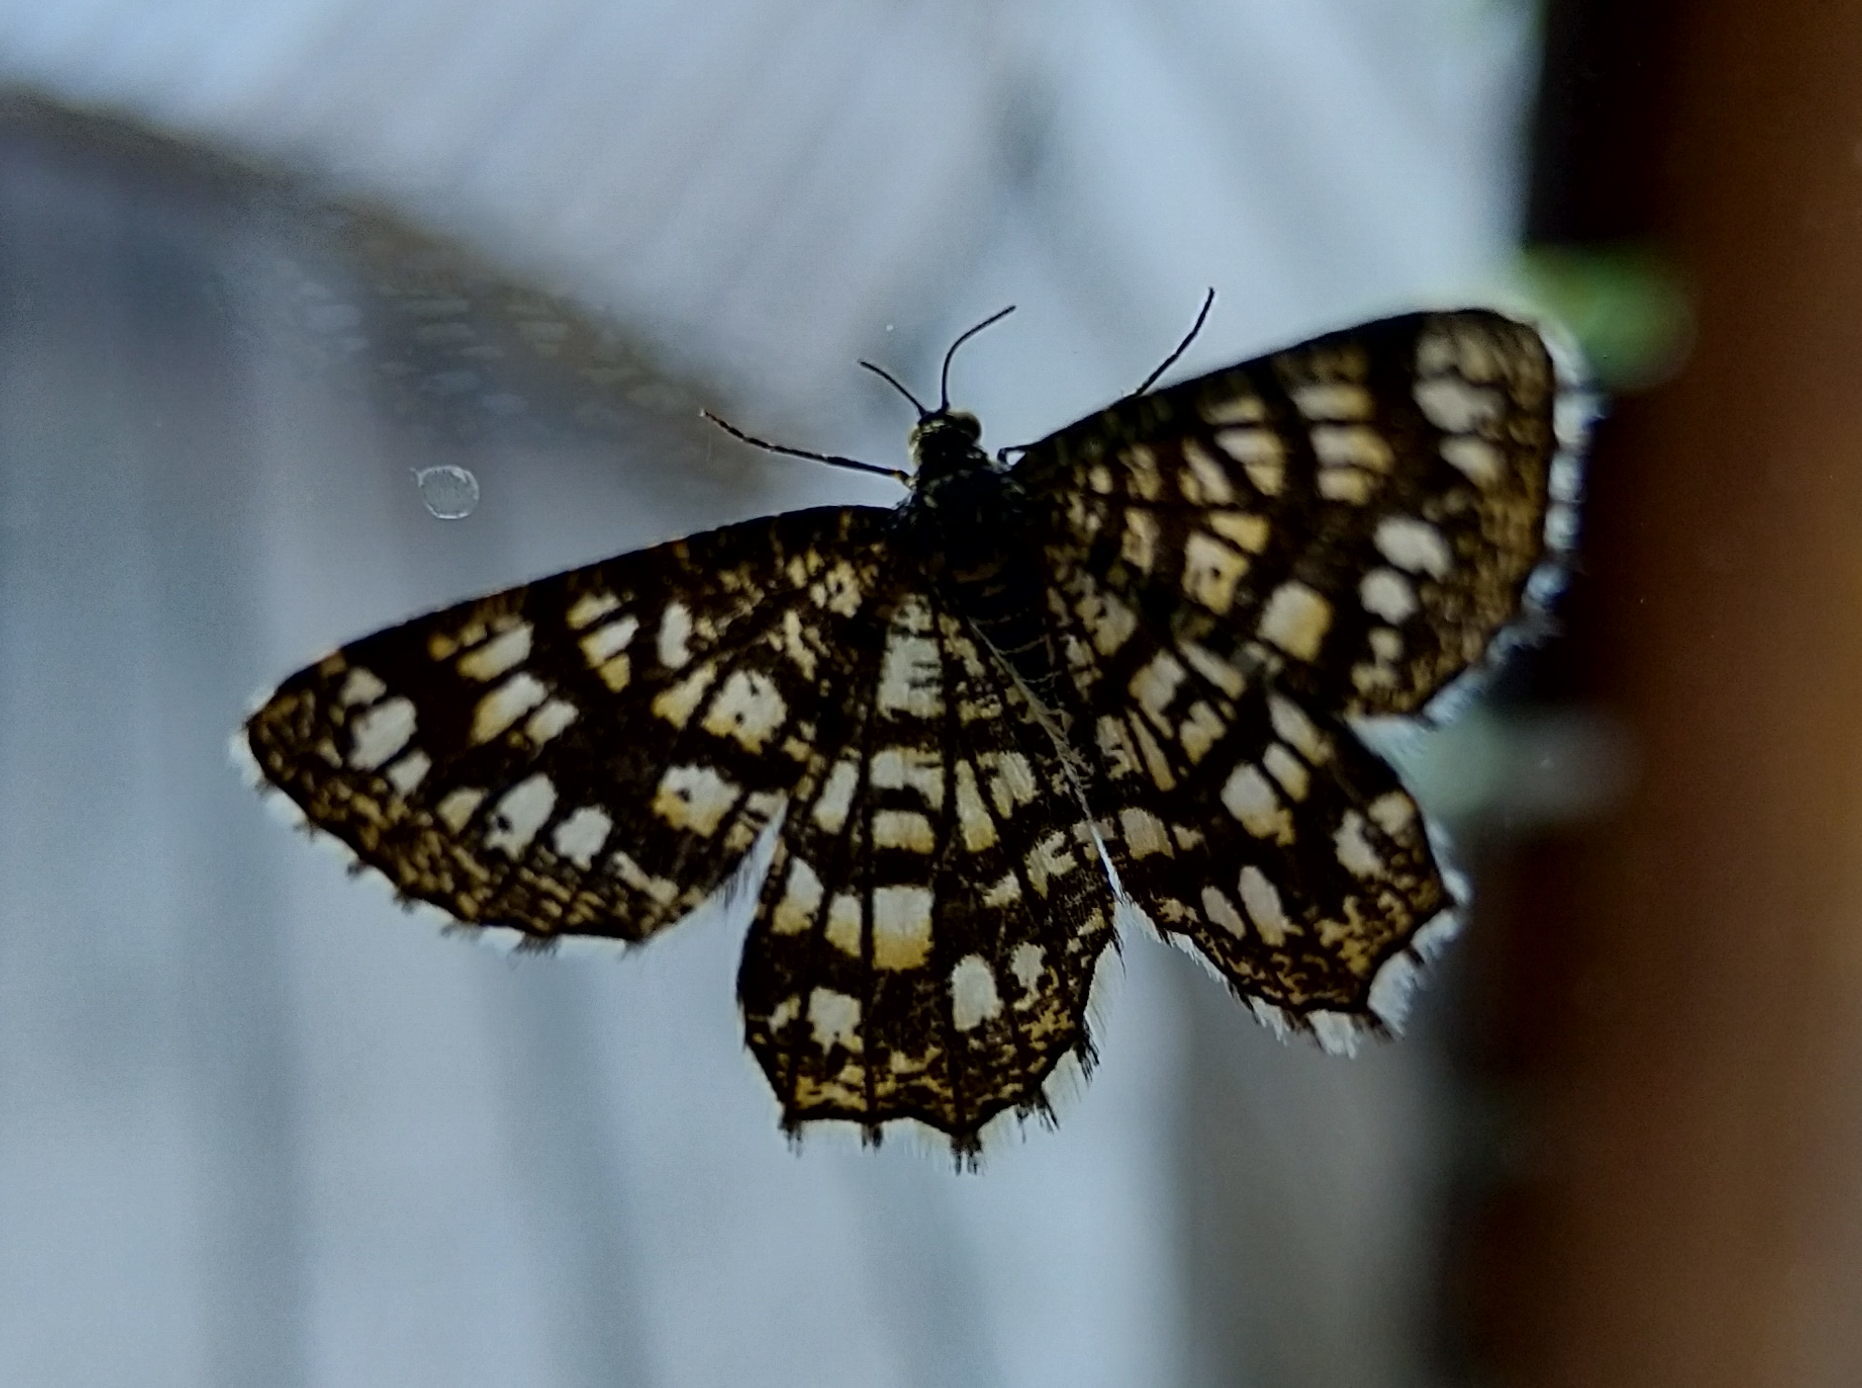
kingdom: Animalia
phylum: Arthropoda
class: Insecta
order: Lepidoptera
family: Geometridae
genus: Chiasmia
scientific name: Chiasmia clathrata
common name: Latticed heath
